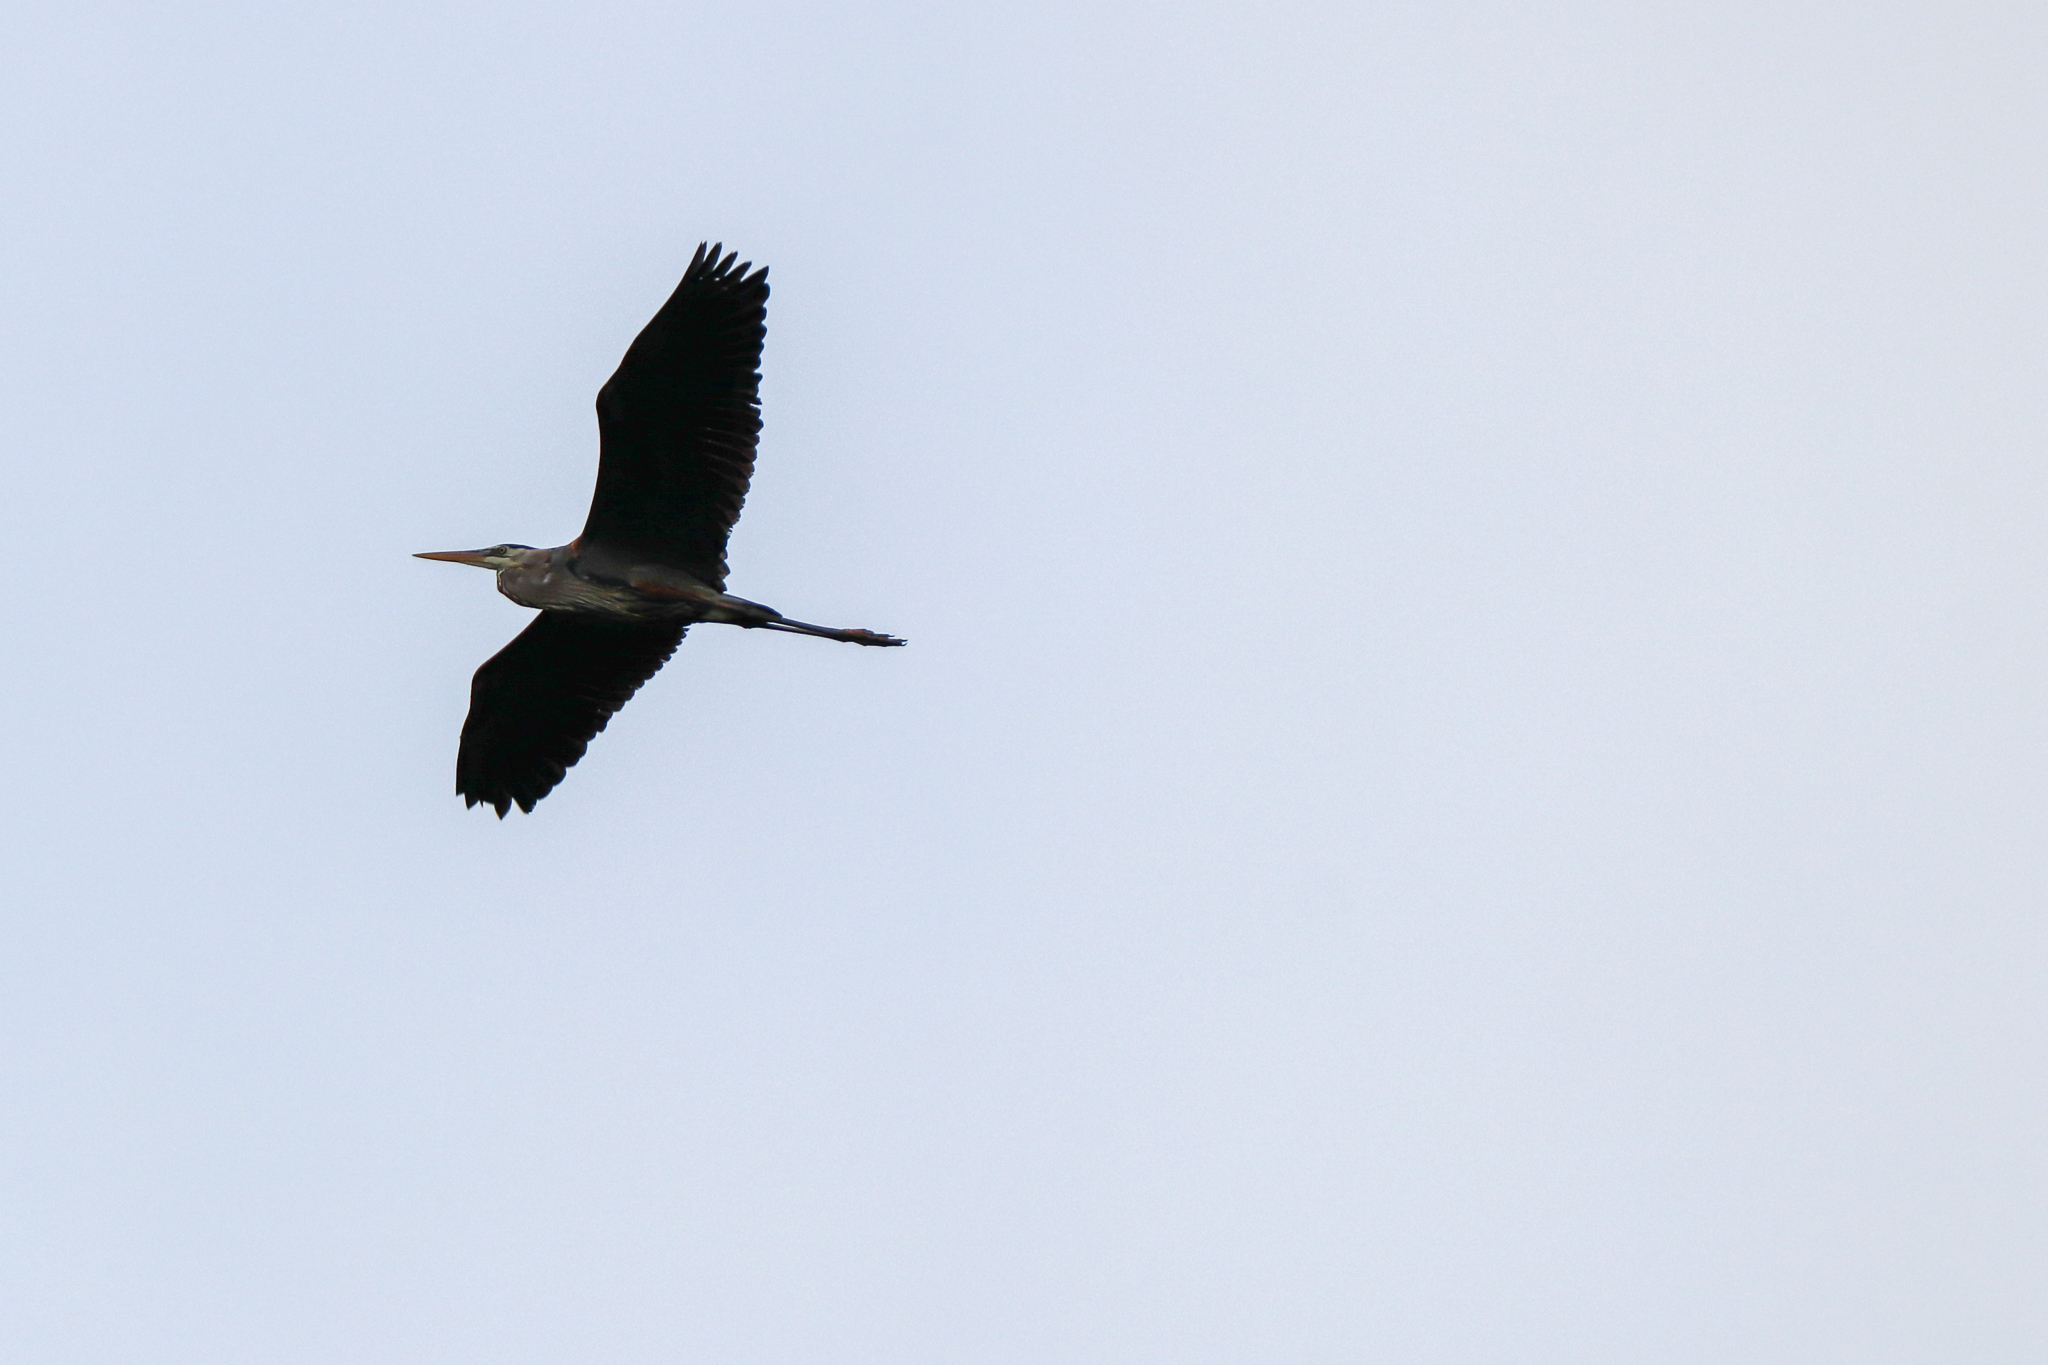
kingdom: Animalia
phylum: Chordata
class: Aves
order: Pelecaniformes
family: Ardeidae
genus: Ardea
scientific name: Ardea herodias
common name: Great blue heron
